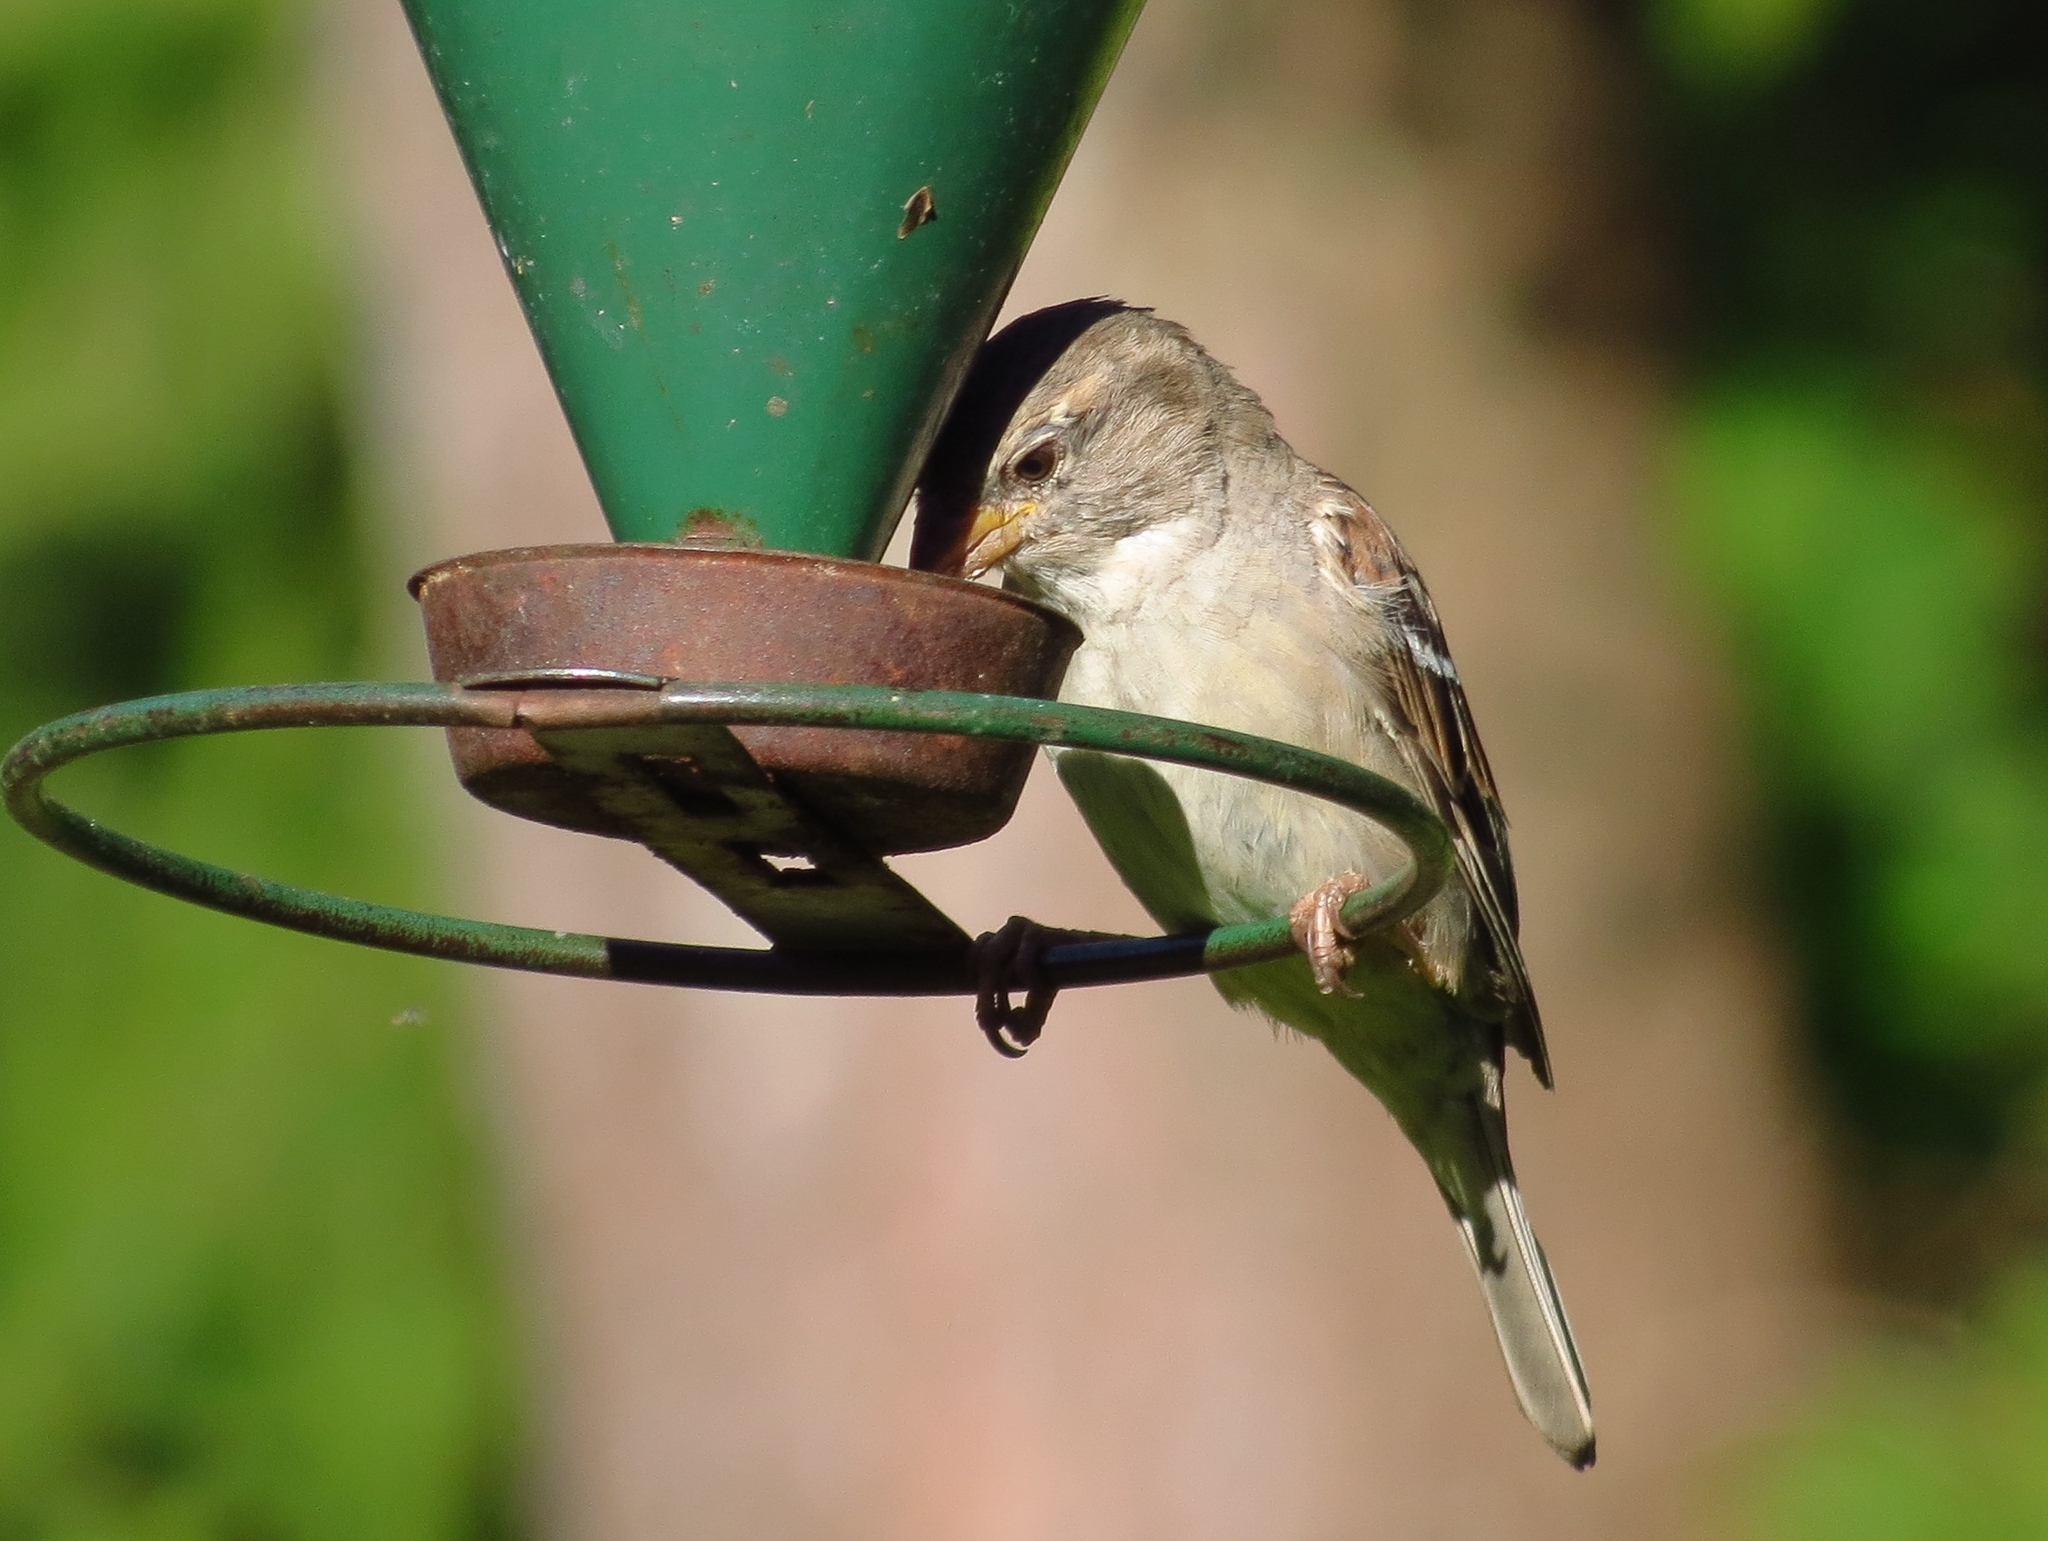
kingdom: Animalia
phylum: Chordata
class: Aves
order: Passeriformes
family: Passeridae
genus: Passer
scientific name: Passer domesticus
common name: House sparrow
